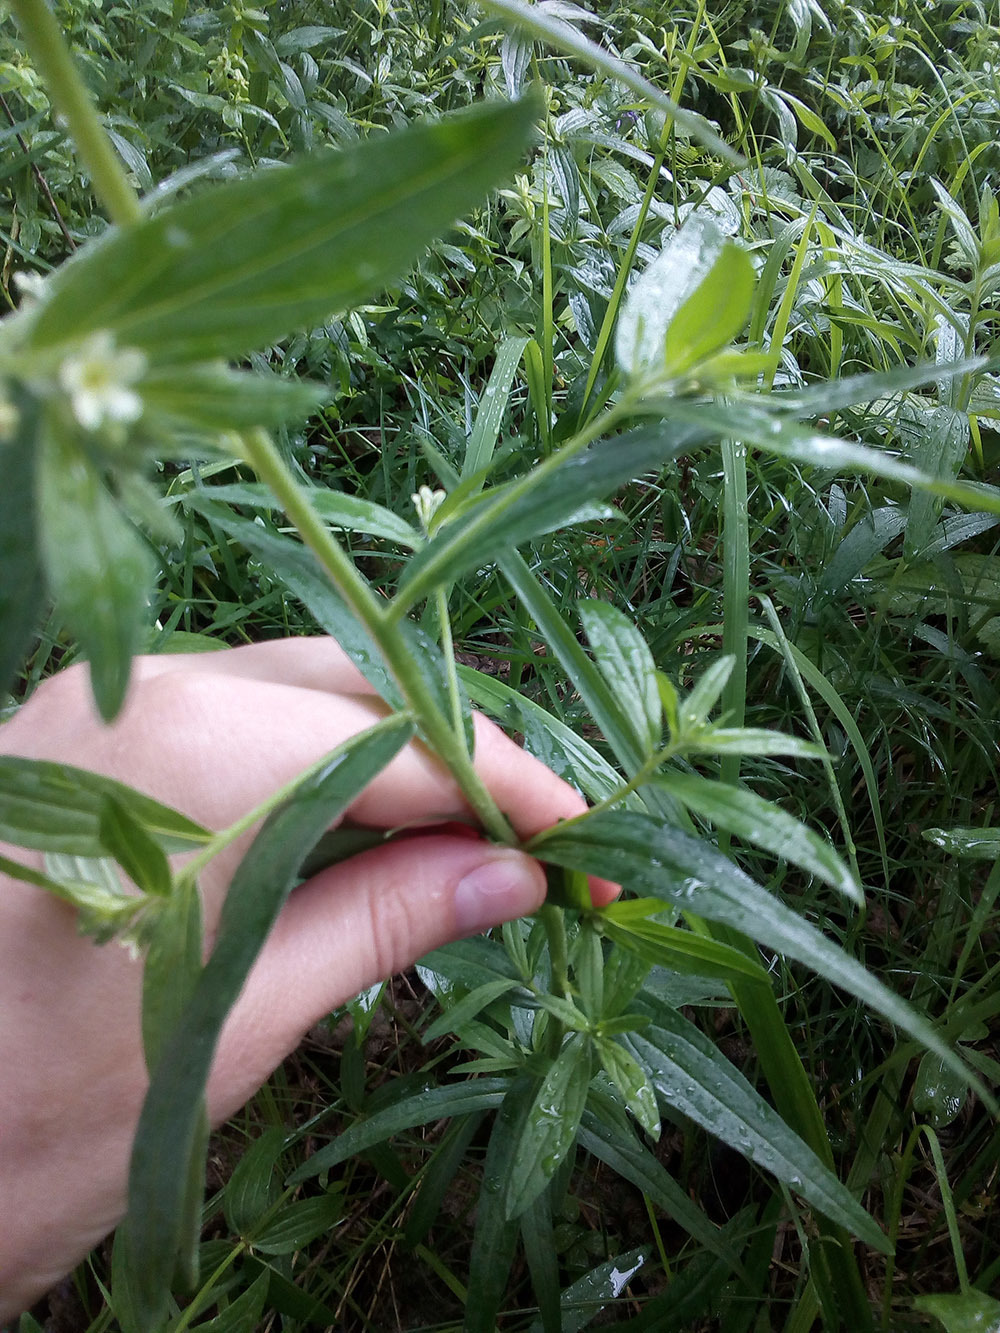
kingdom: Plantae
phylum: Tracheophyta
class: Magnoliopsida
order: Boraginales
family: Boraginaceae
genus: Lithospermum
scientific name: Lithospermum officinale
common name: Common gromwell
